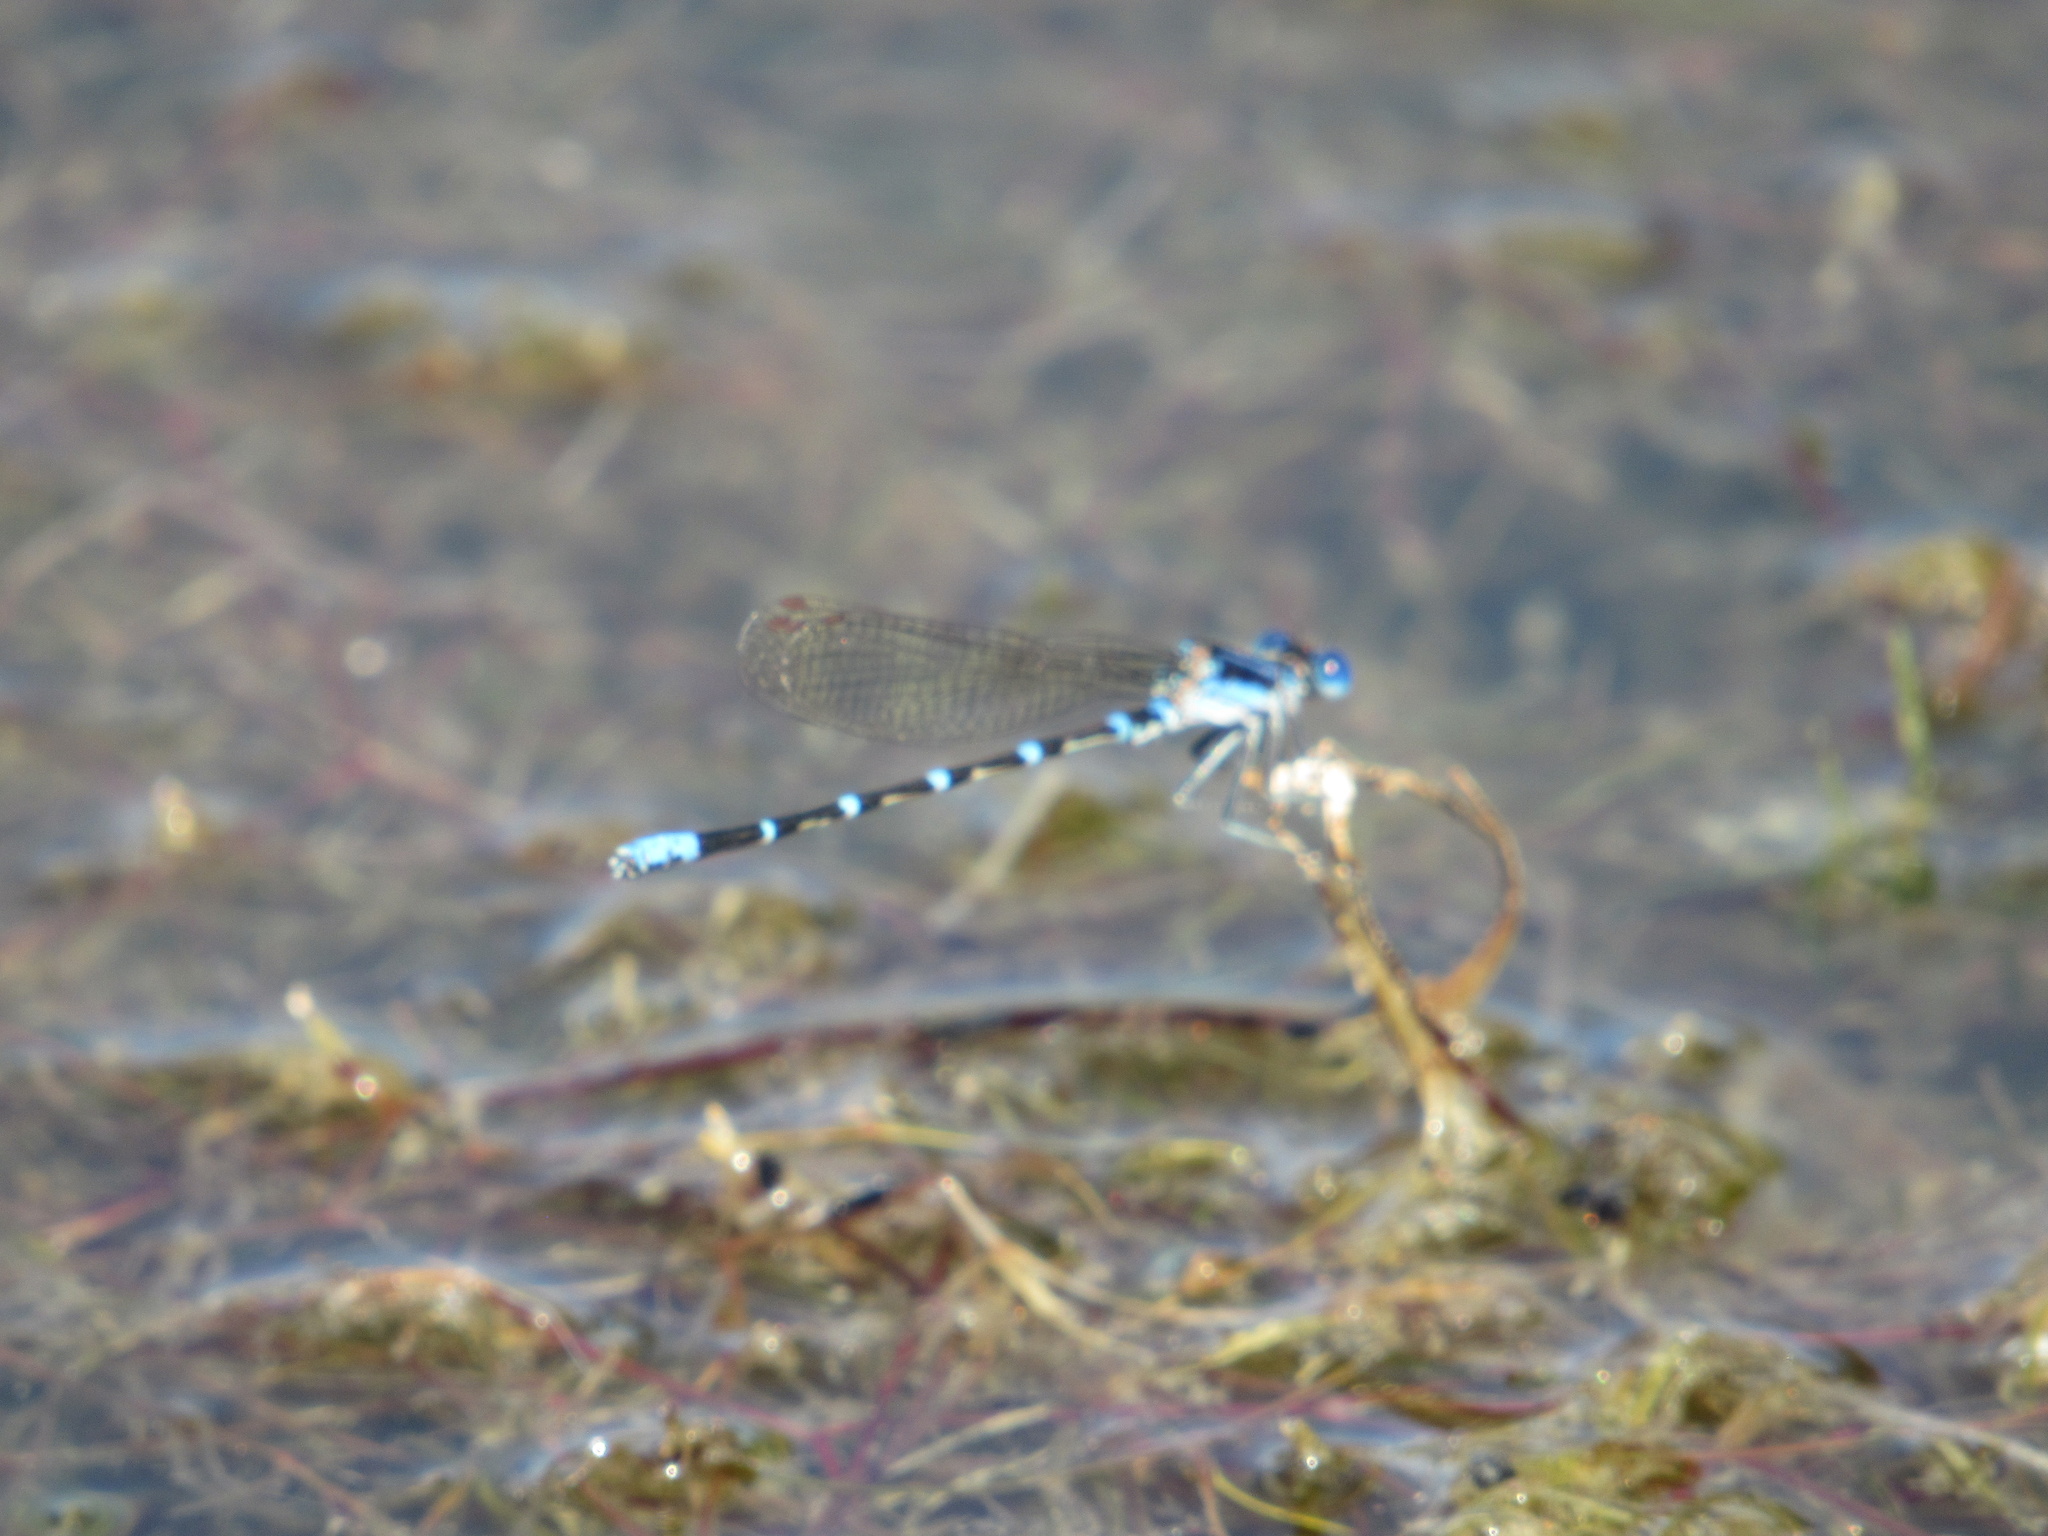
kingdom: Animalia
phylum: Arthropoda
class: Insecta
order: Odonata
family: Coenagrionidae
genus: Argia
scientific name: Argia sedula
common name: Blue-ringed dancer
